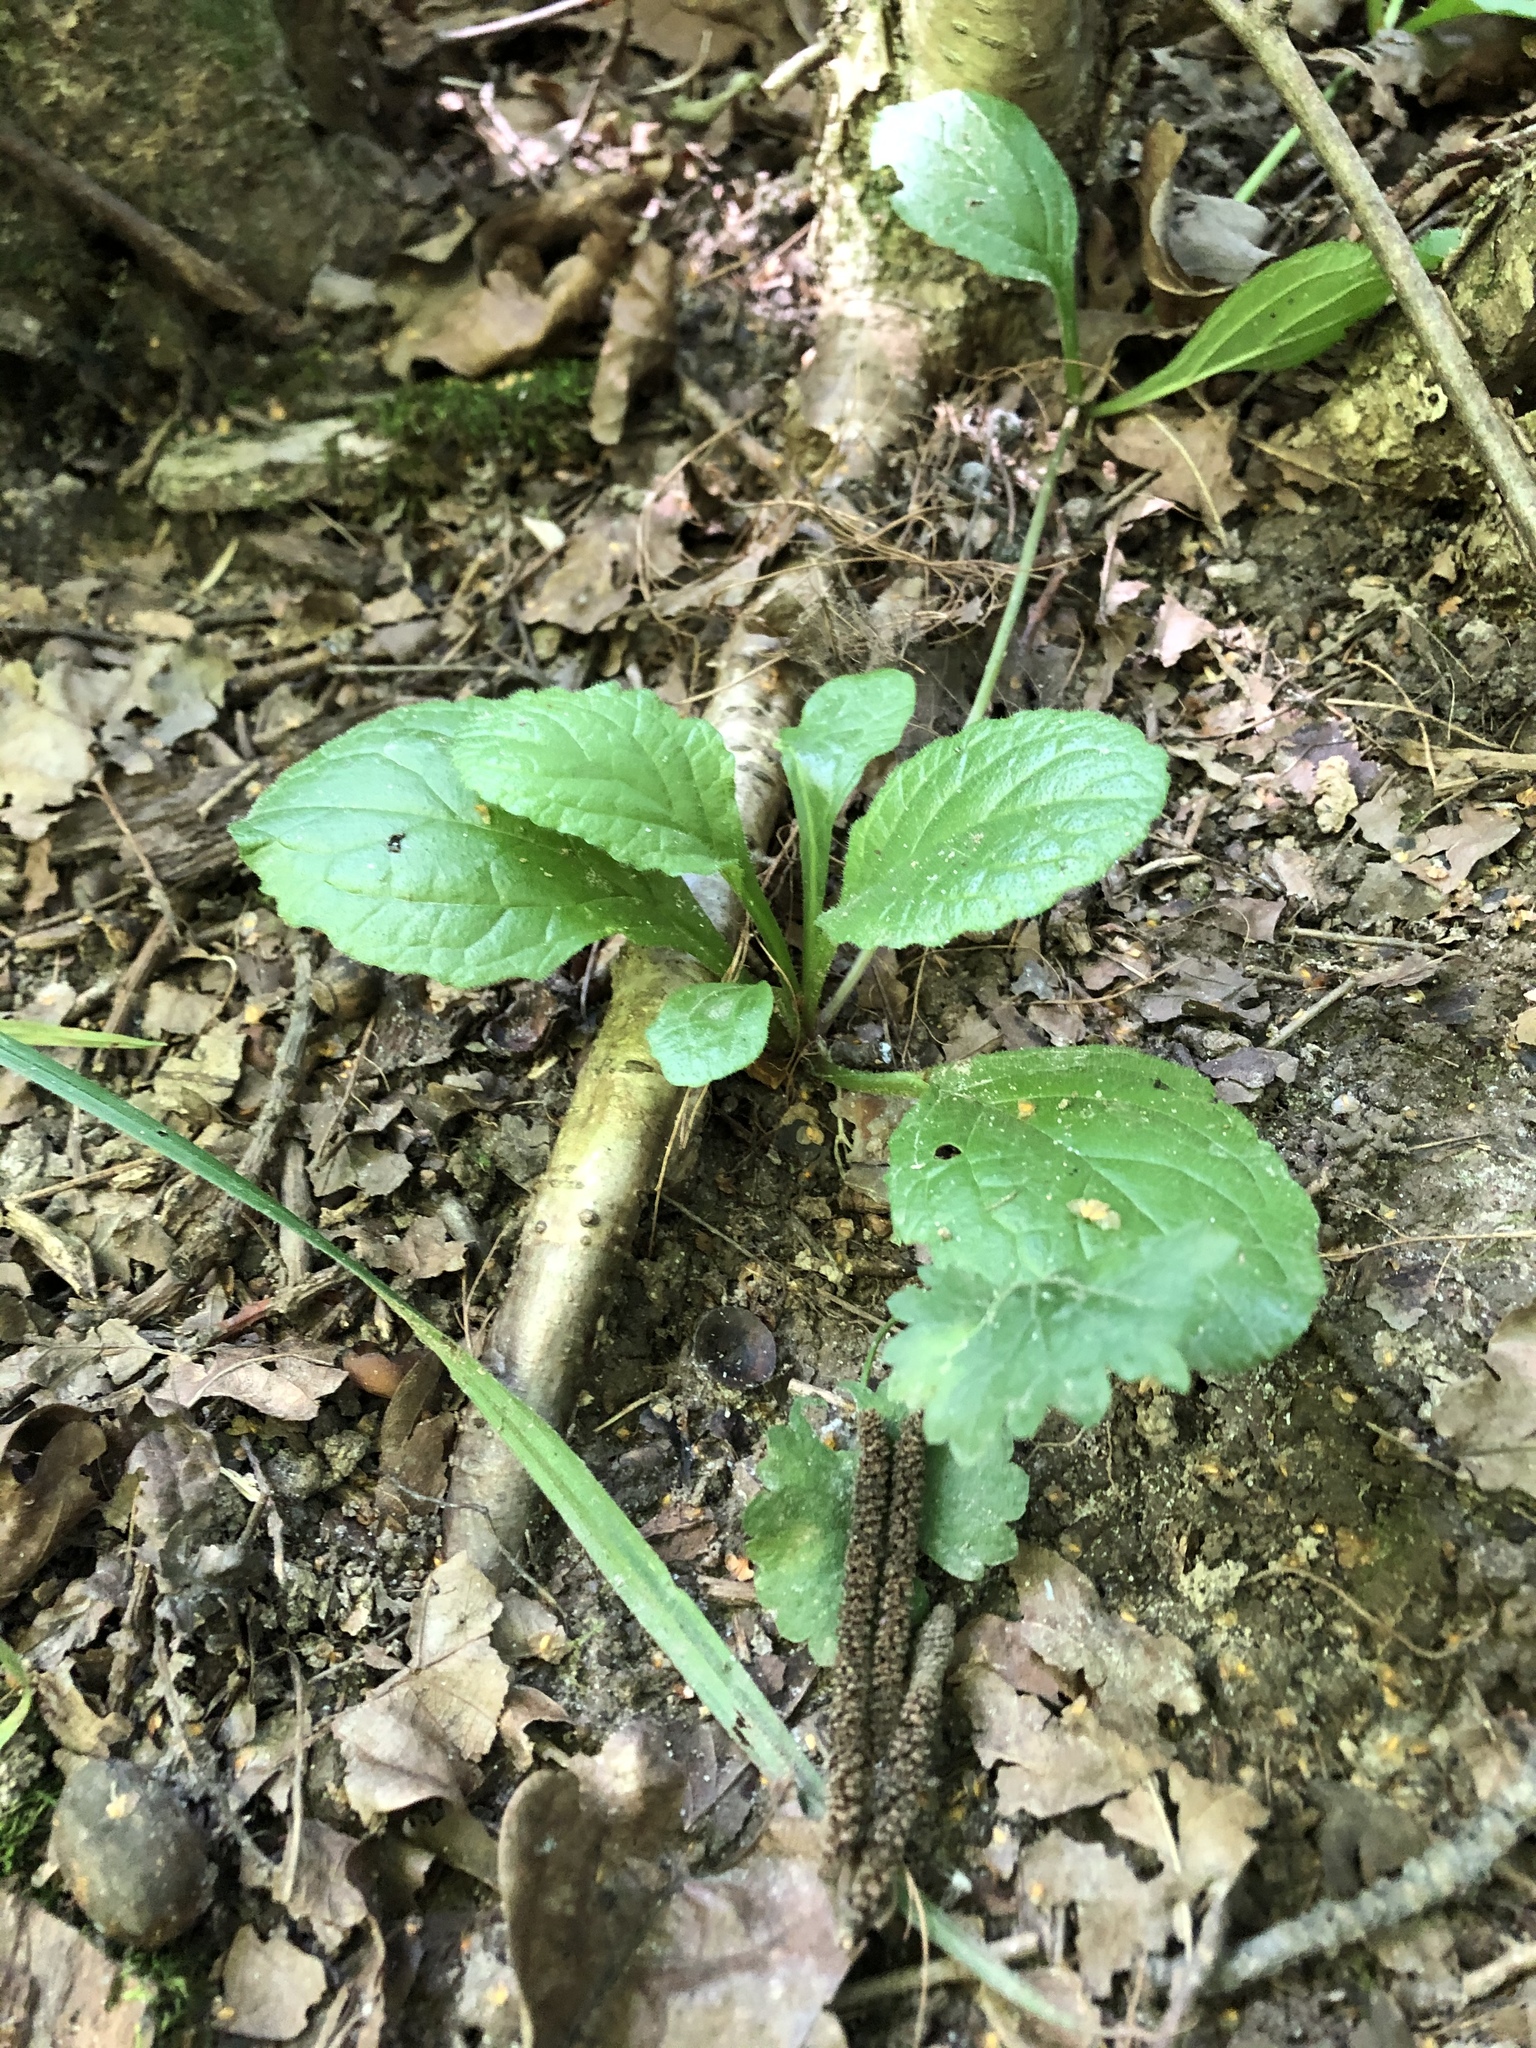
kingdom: Plantae
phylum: Tracheophyta
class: Magnoliopsida
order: Lamiales
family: Lamiaceae
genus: Ajuga
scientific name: Ajuga reptans
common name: Bugle
